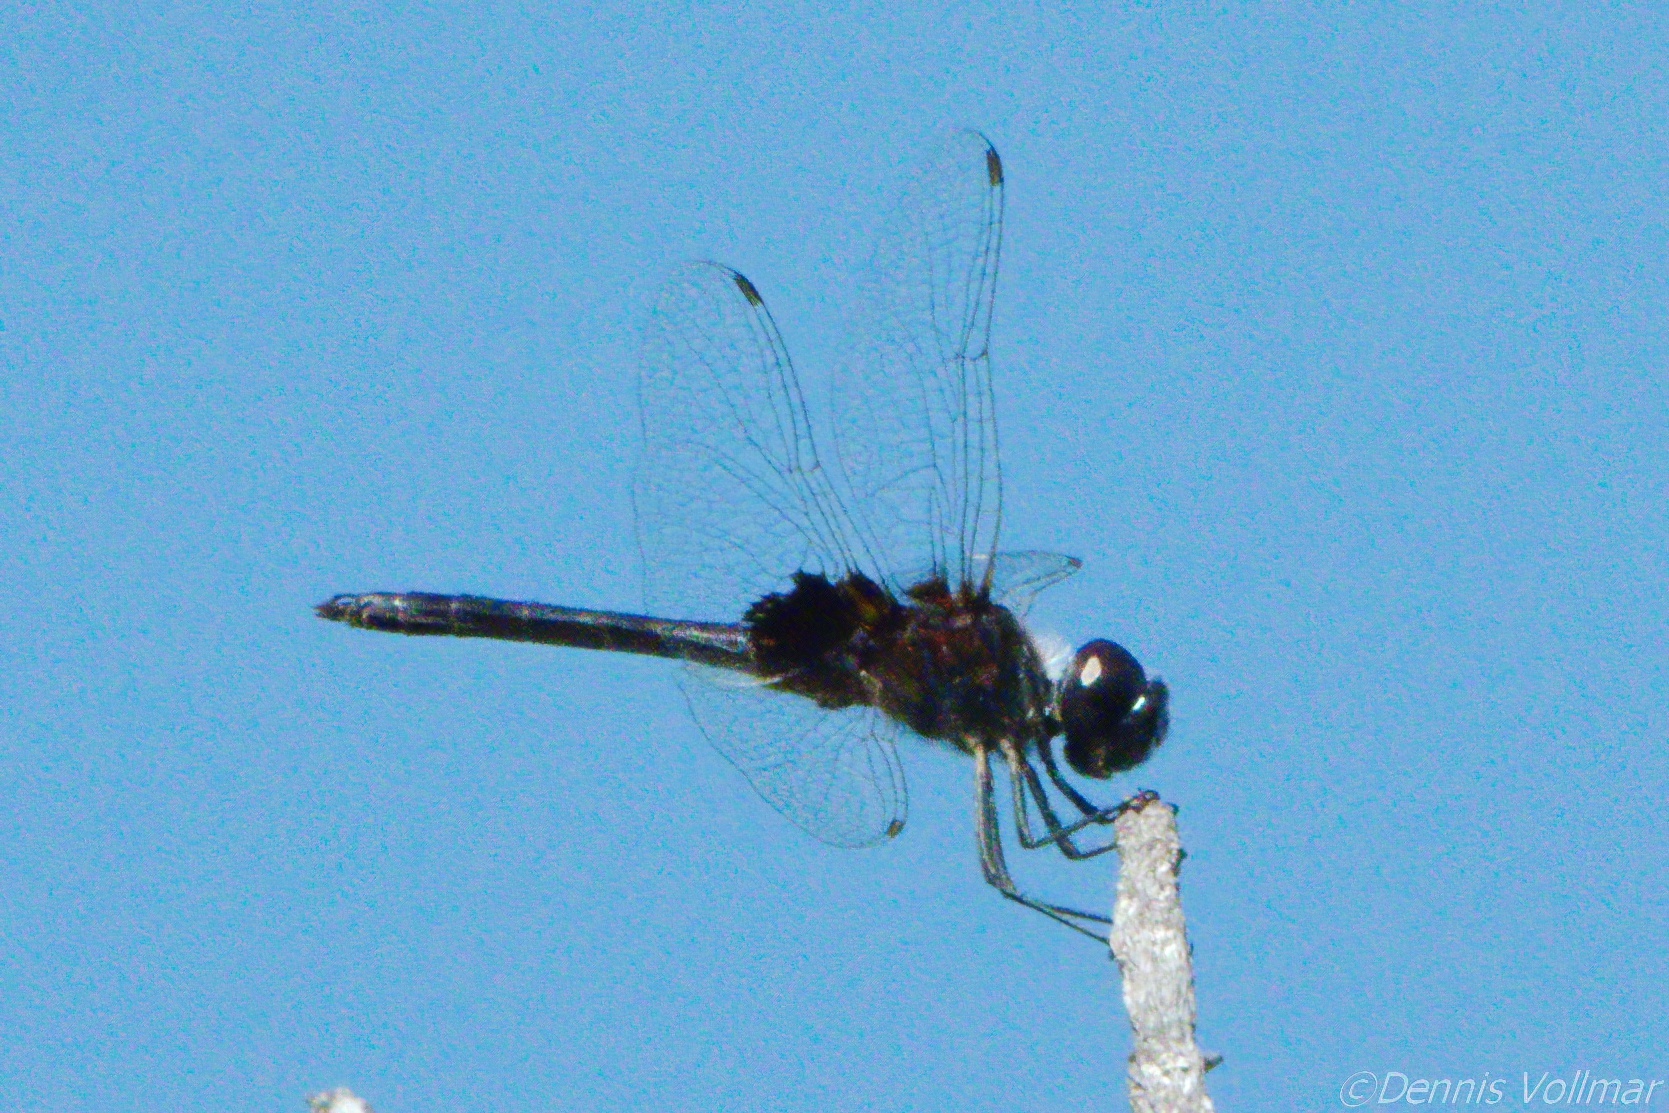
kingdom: Animalia
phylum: Arthropoda
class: Insecta
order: Odonata
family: Libellulidae
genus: Macrodiplax
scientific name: Macrodiplax balteata
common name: Marl pennant
